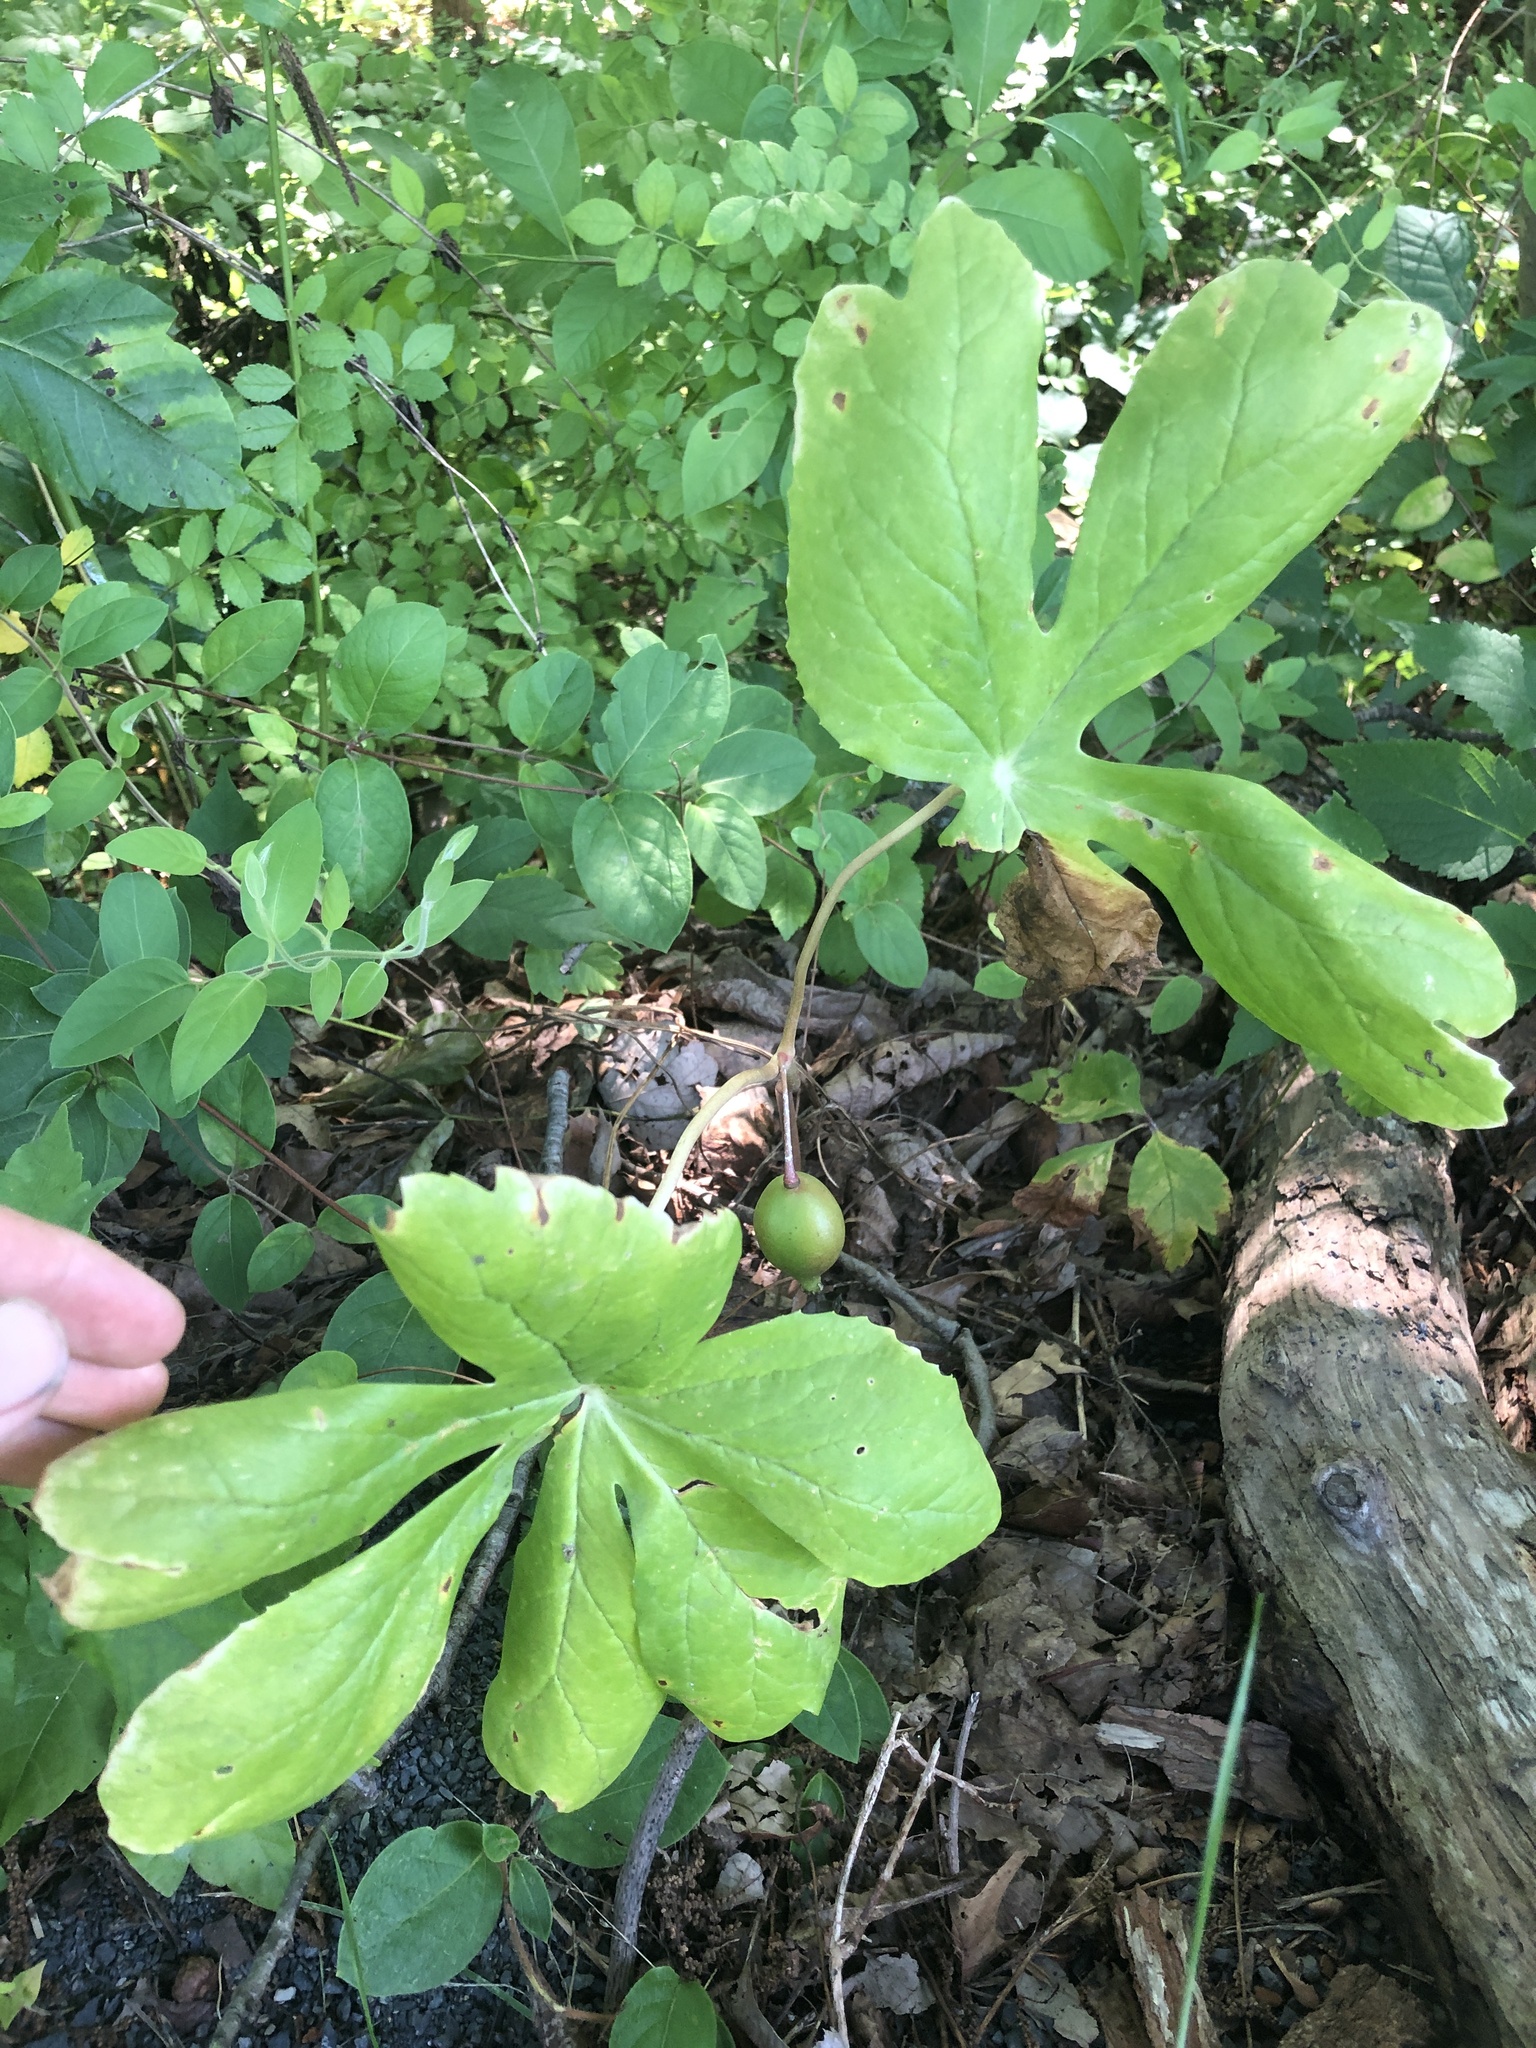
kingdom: Plantae
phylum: Tracheophyta
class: Magnoliopsida
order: Ranunculales
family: Berberidaceae
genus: Podophyllum
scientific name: Podophyllum peltatum
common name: Wild mandrake
